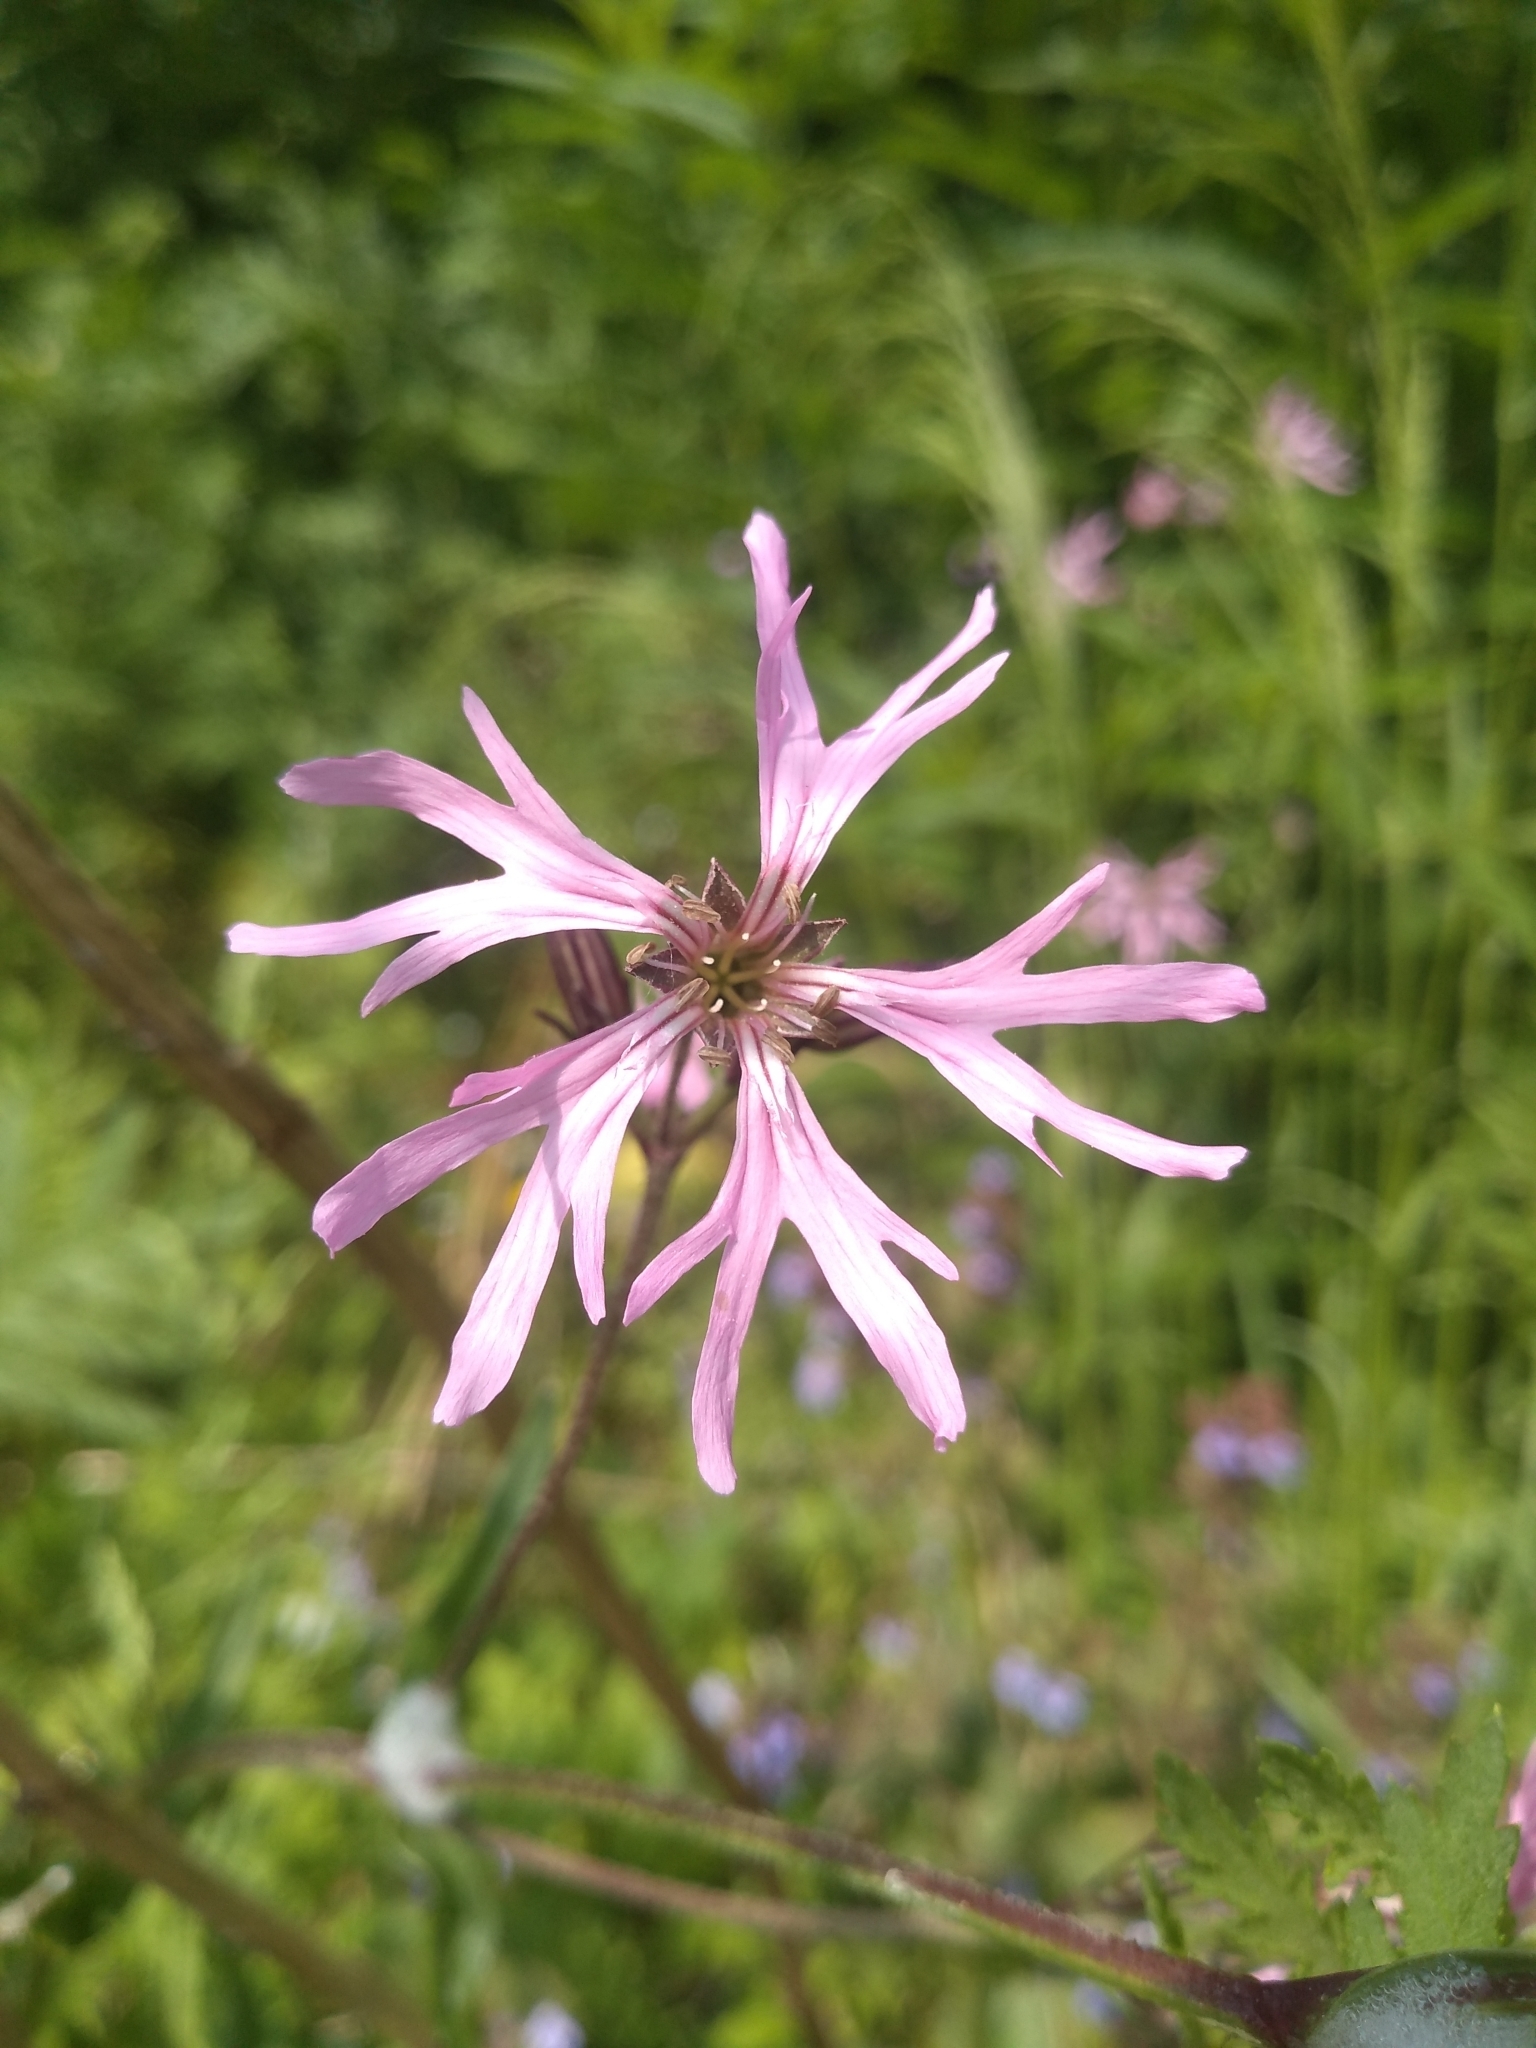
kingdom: Plantae
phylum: Tracheophyta
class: Magnoliopsida
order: Caryophyllales
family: Caryophyllaceae
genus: Silene
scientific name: Silene flos-cuculi
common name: Ragged-robin
